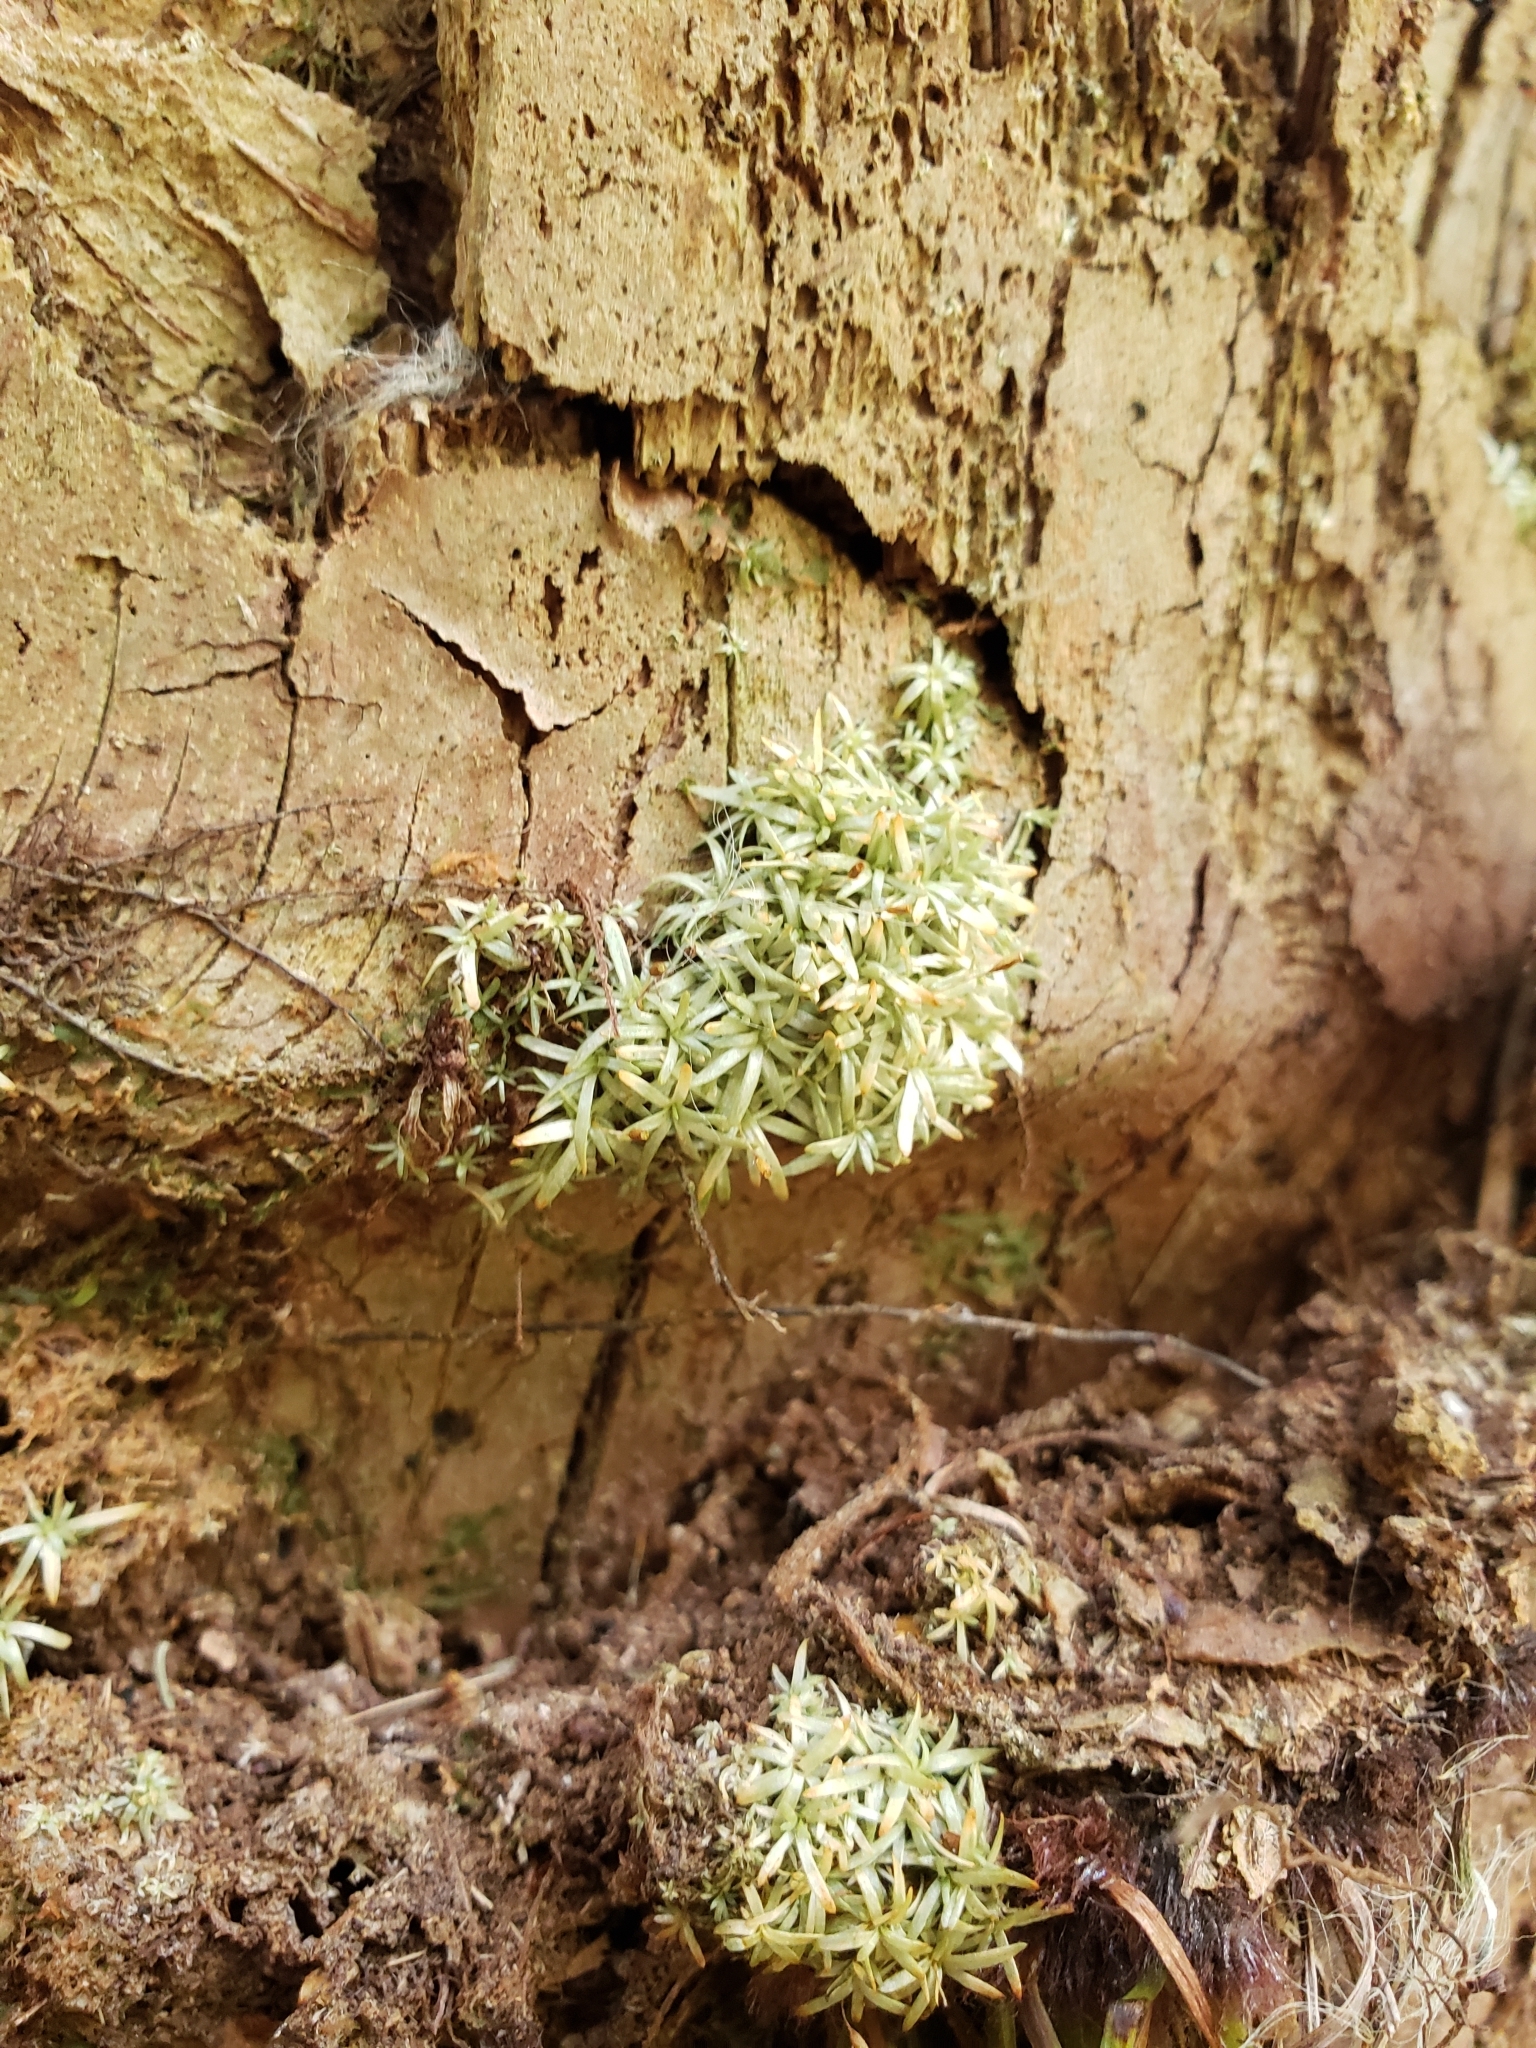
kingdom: Plantae
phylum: Bryophyta
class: Bryopsida
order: Dicranales
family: Octoblepharaceae
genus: Octoblepharum
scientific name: Octoblepharum albidum
